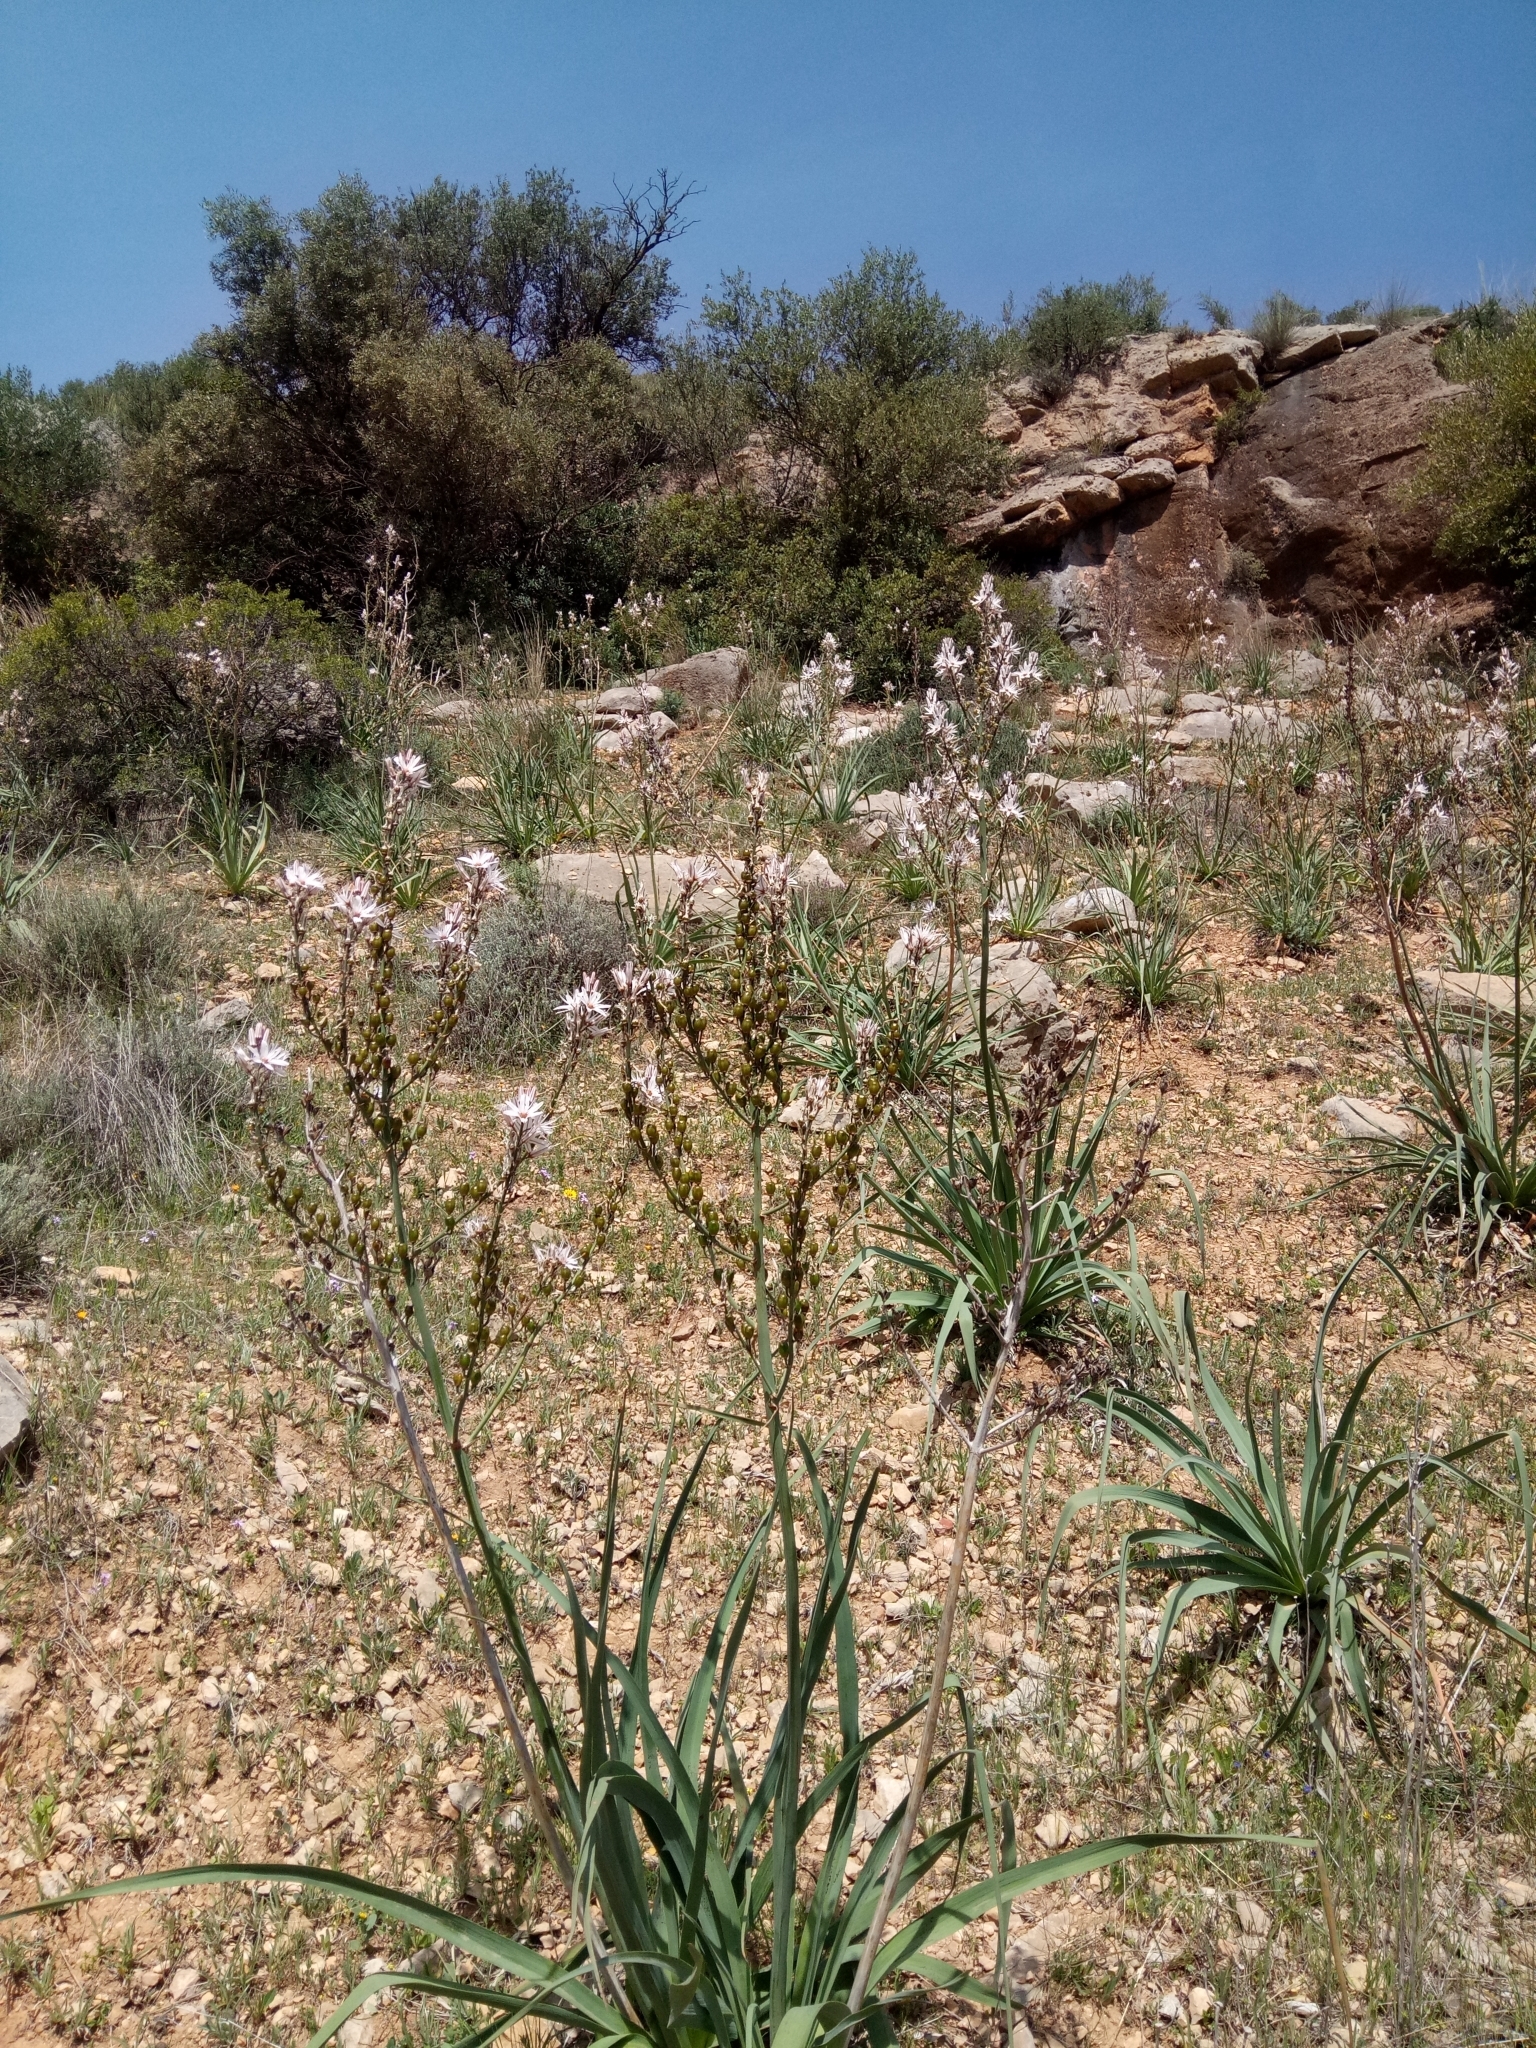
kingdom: Plantae
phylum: Tracheophyta
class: Liliopsida
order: Asparagales
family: Asphodelaceae
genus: Asphodelus
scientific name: Asphodelus ramosus
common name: Silverrod
